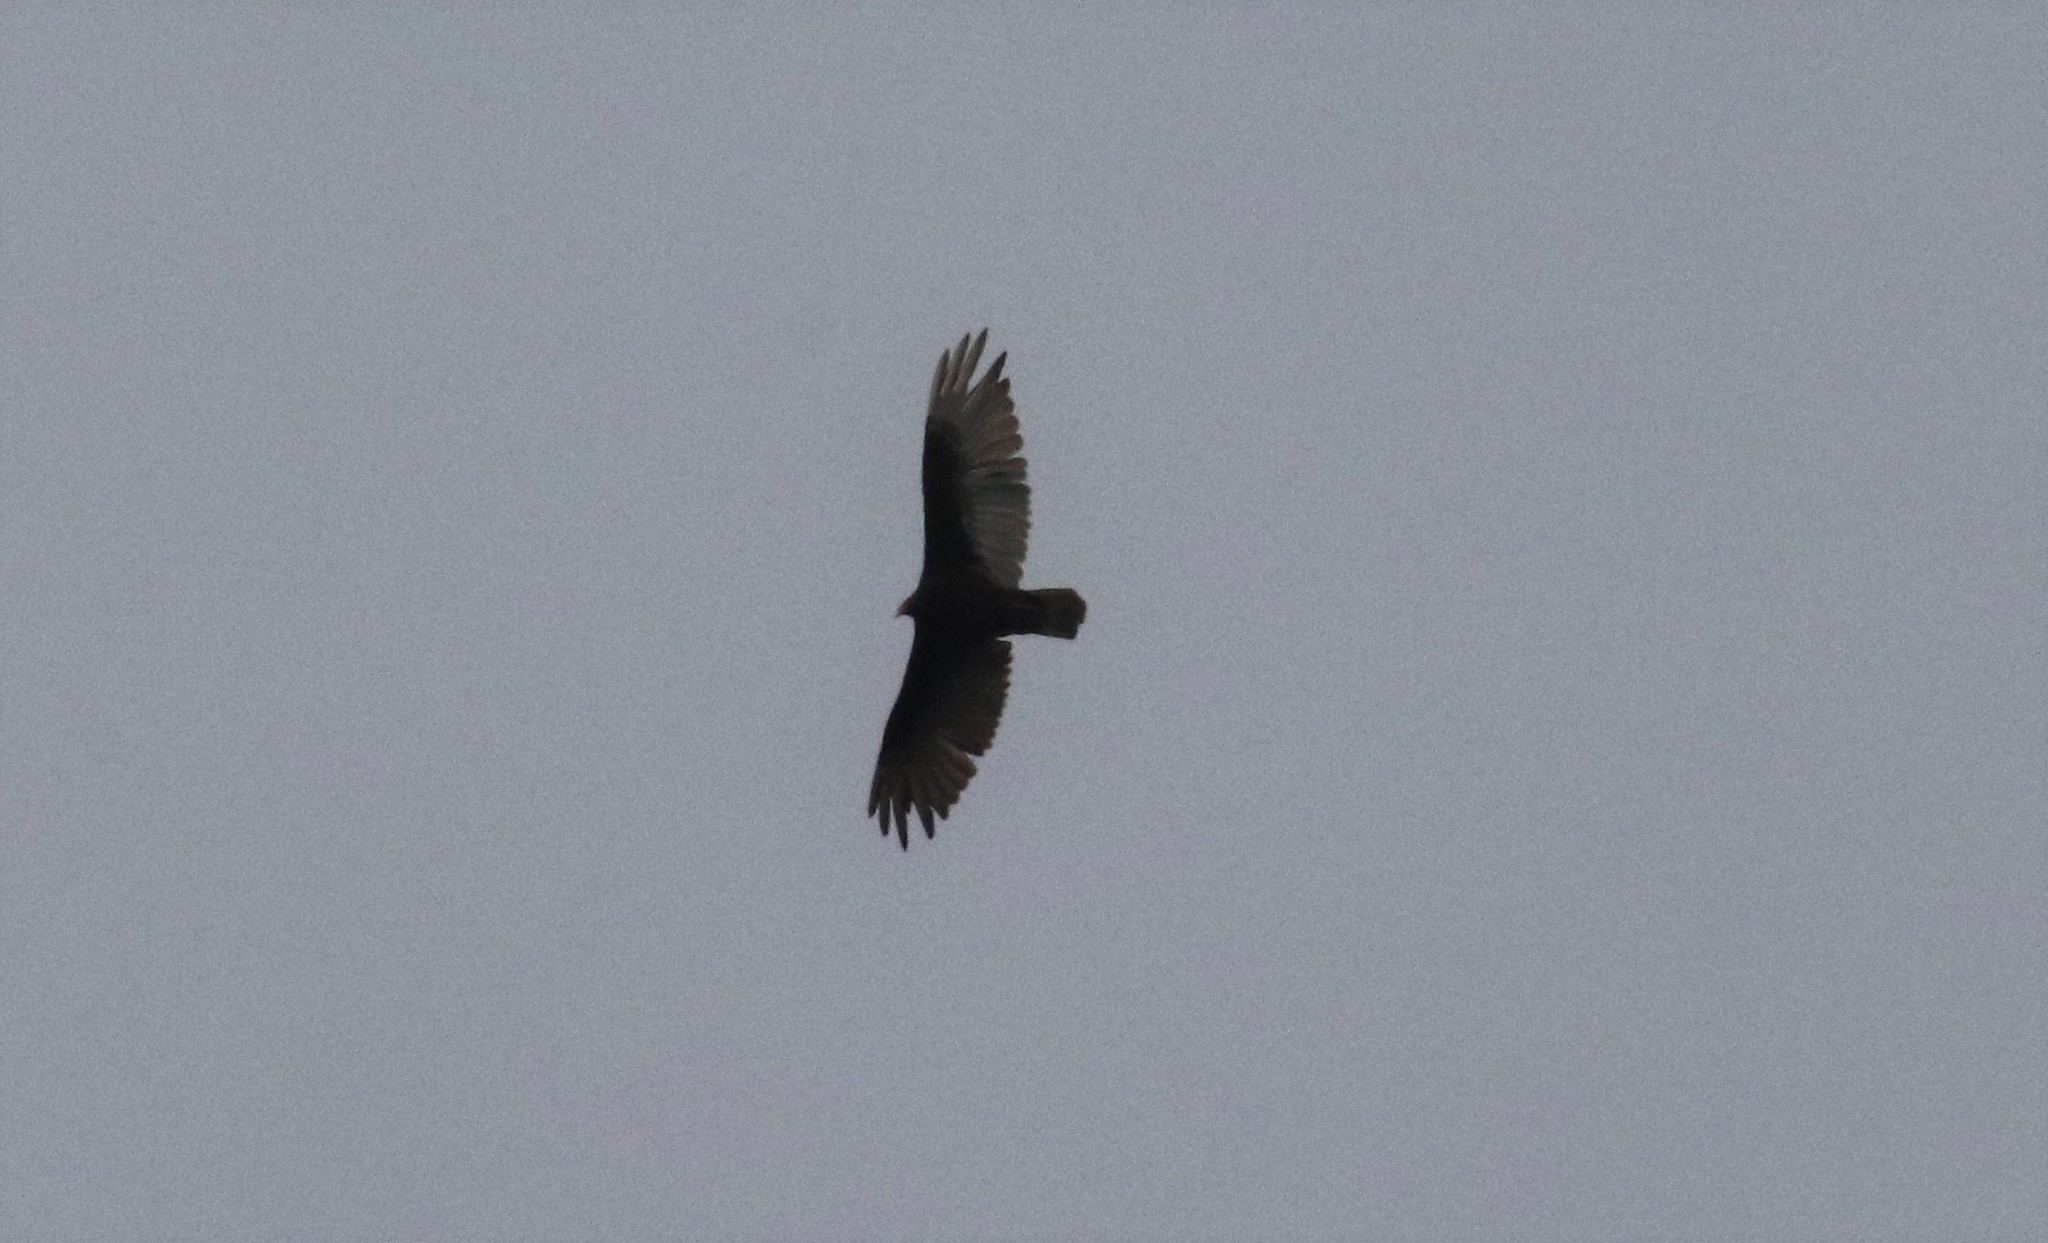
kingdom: Animalia
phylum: Chordata
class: Aves
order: Accipitriformes
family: Cathartidae
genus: Cathartes
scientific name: Cathartes aura
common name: Turkey vulture
